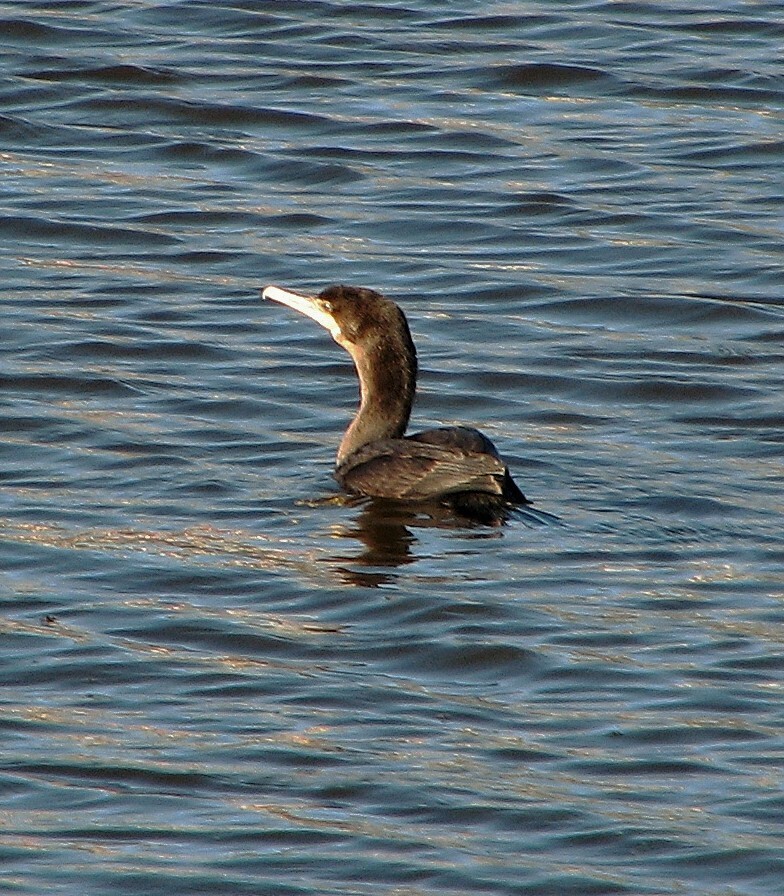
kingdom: Animalia
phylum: Chordata
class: Aves
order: Suliformes
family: Phalacrocoracidae
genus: Phalacrocorax
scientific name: Phalacrocorax brasilianus
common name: Neotropic cormorant
